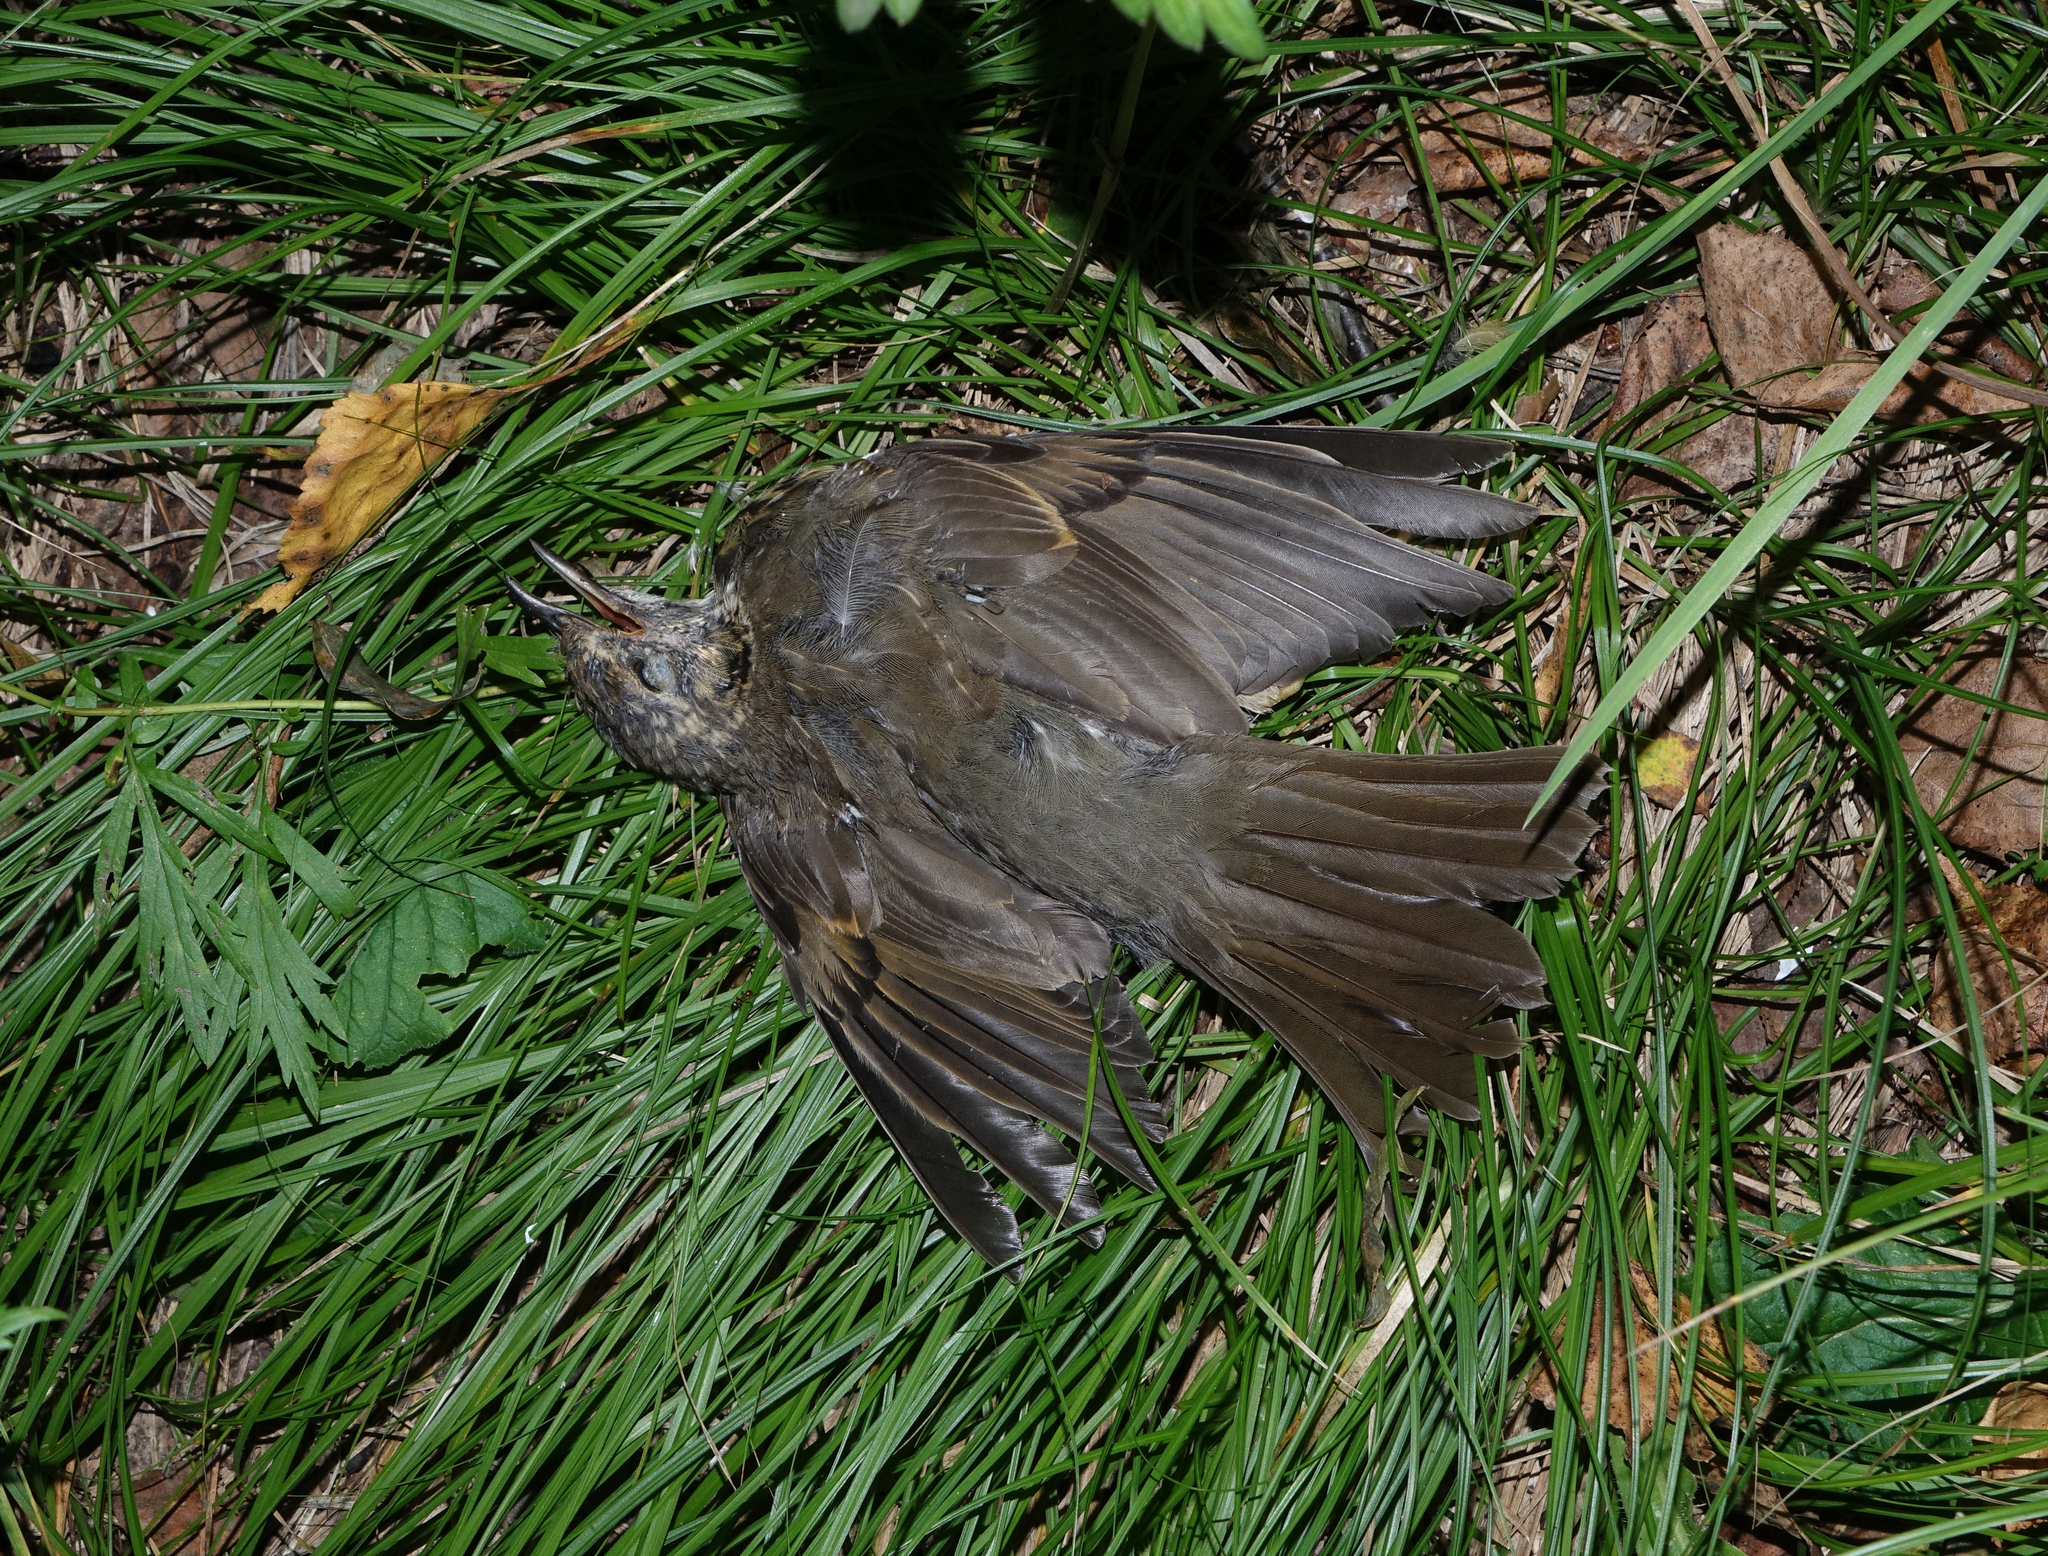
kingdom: Animalia
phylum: Chordata
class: Aves
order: Passeriformes
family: Turdidae
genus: Turdus
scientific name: Turdus philomelos
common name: Song thrush
